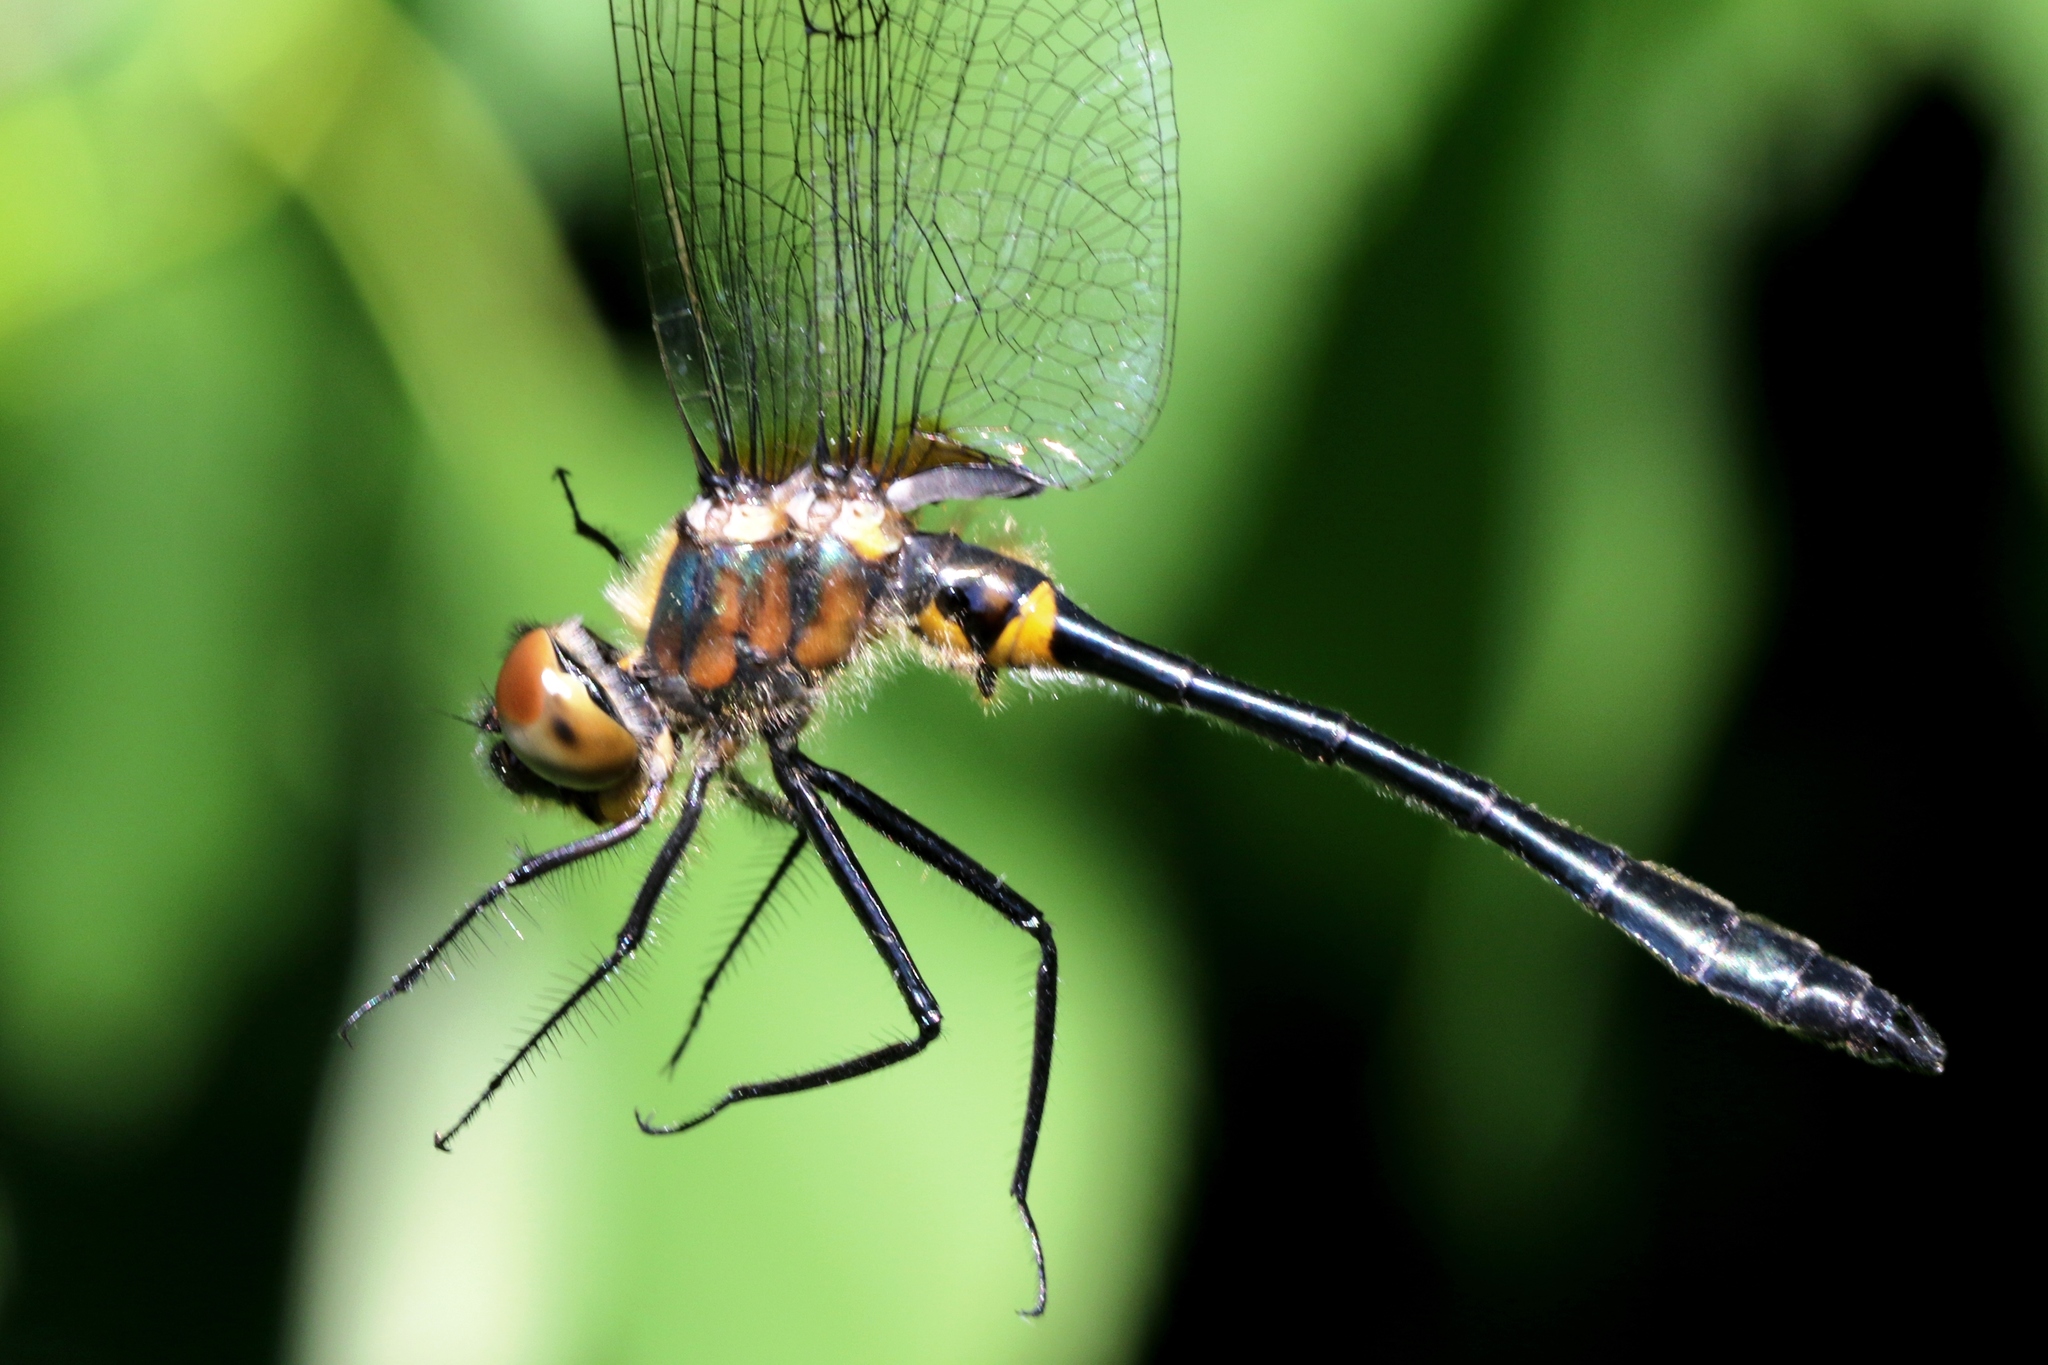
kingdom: Animalia
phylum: Arthropoda
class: Insecta
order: Odonata
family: Corduliidae
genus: Dorocordulia
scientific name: Dorocordulia libera
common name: Racket-tailed emerald
